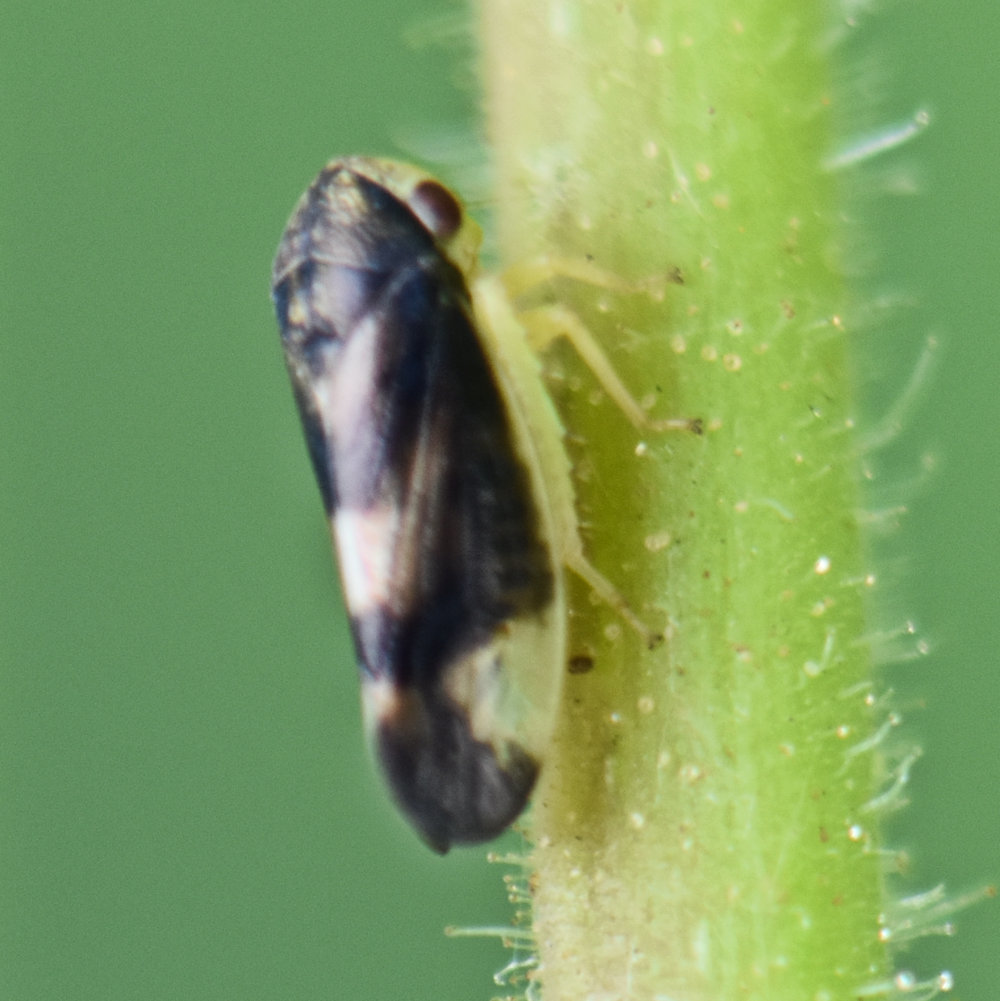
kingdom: Animalia
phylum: Arthropoda
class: Insecta
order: Hemiptera
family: Cicadellidae
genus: Pediopsoides
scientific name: Pediopsoides distinctus
